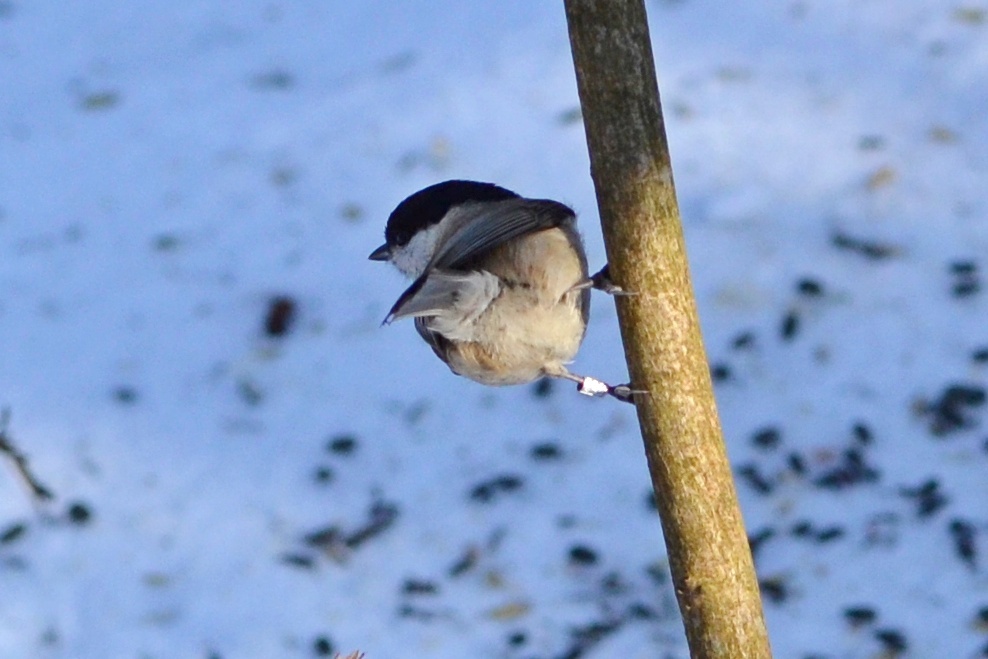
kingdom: Animalia
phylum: Chordata
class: Aves
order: Passeriformes
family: Paridae
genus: Poecile
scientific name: Poecile palustris
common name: Marsh tit
